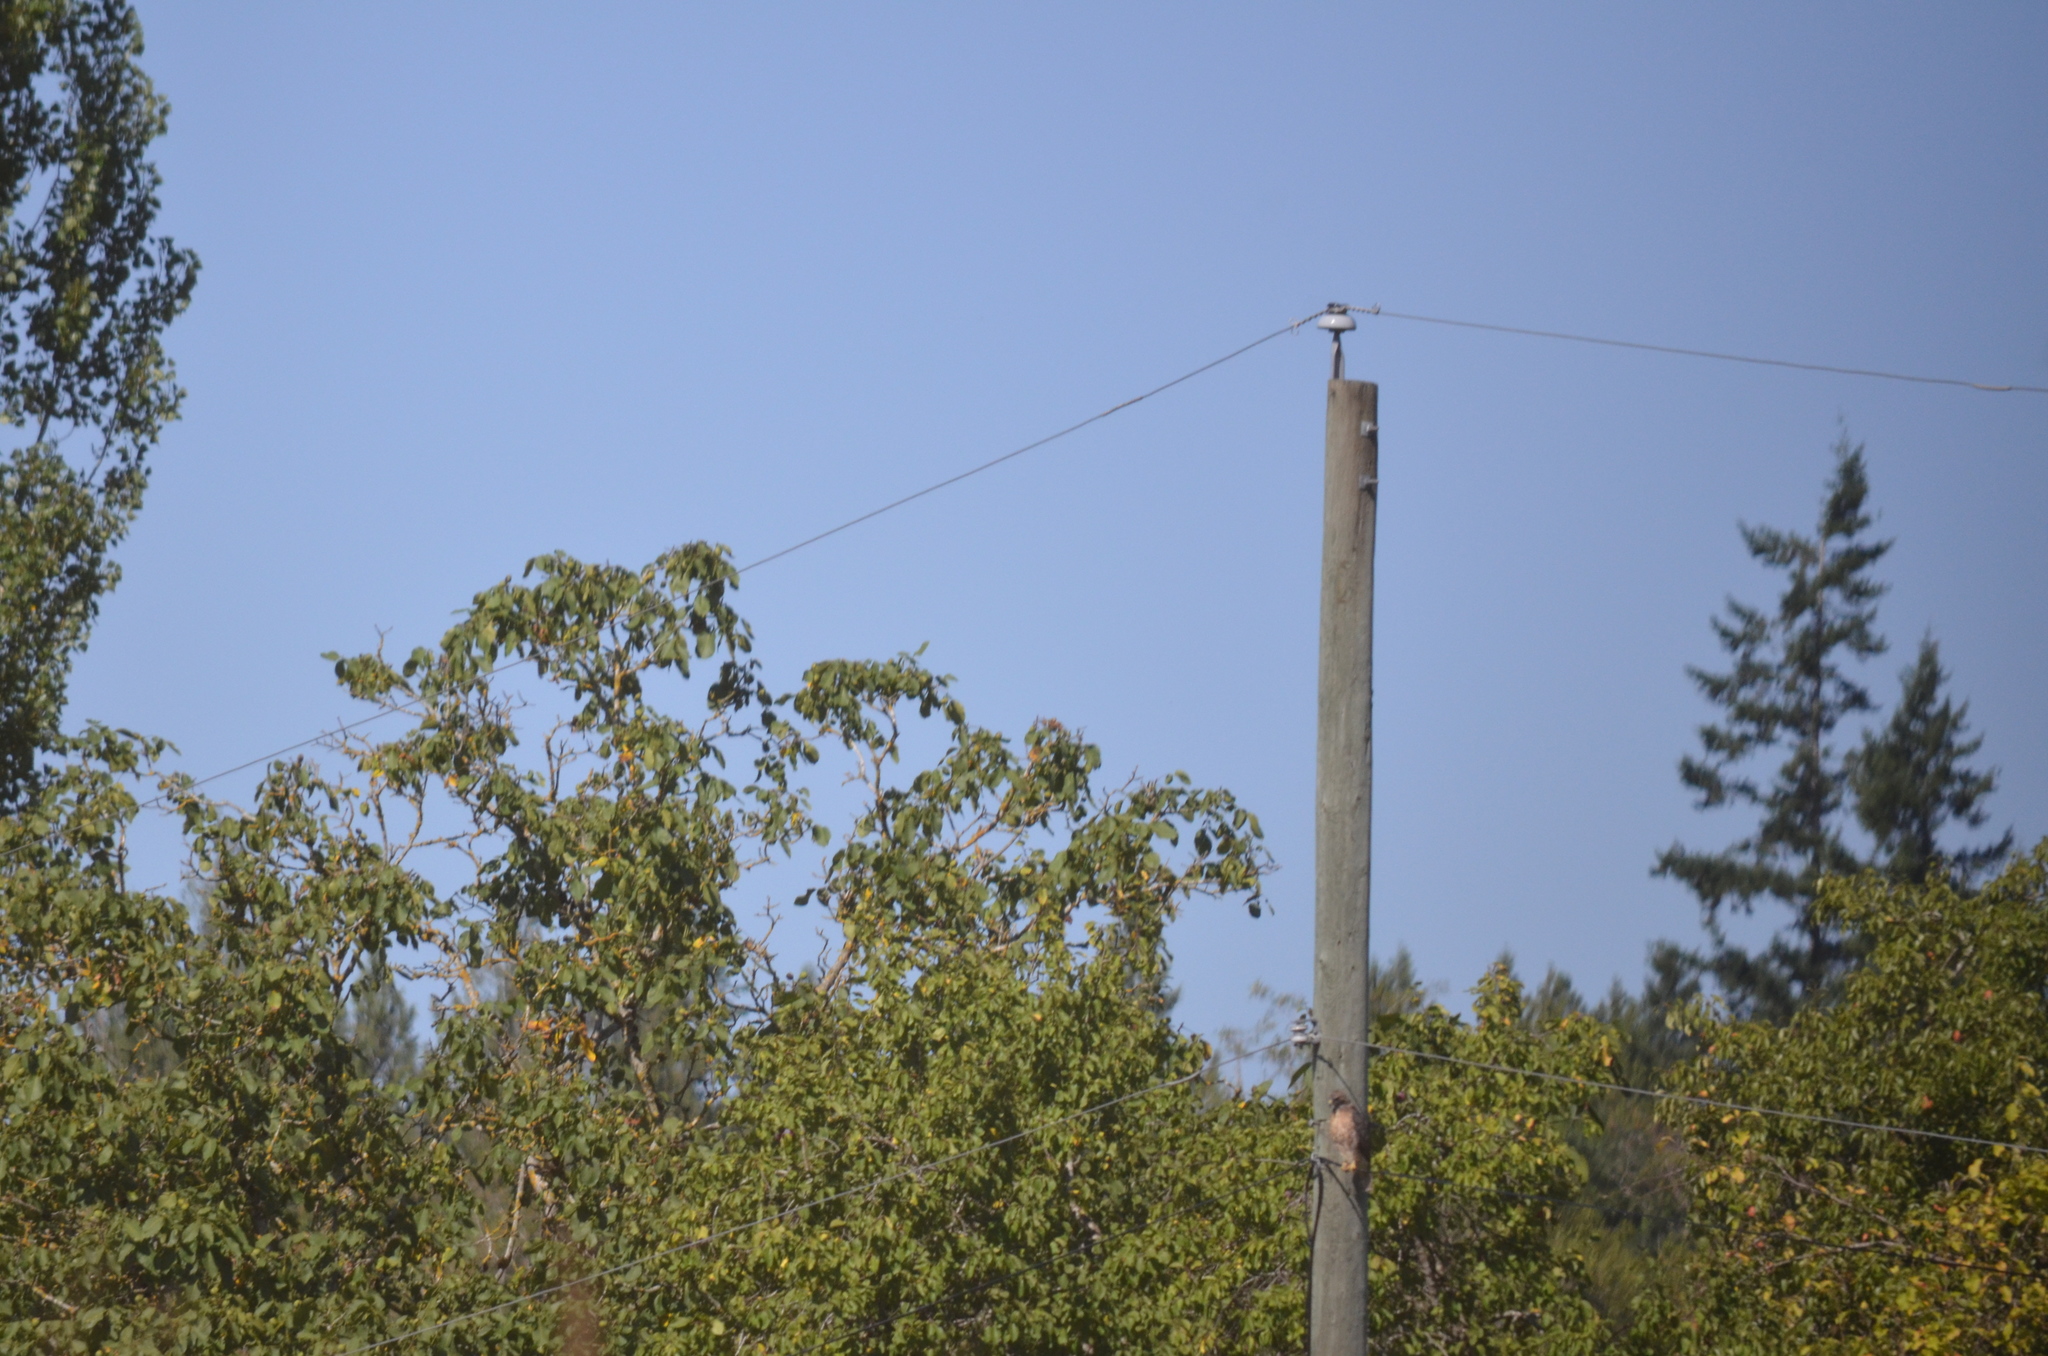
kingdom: Animalia
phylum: Chordata
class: Aves
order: Accipitriformes
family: Accipitridae
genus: Buteo
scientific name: Buteo jamaicensis
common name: Red-tailed hawk
